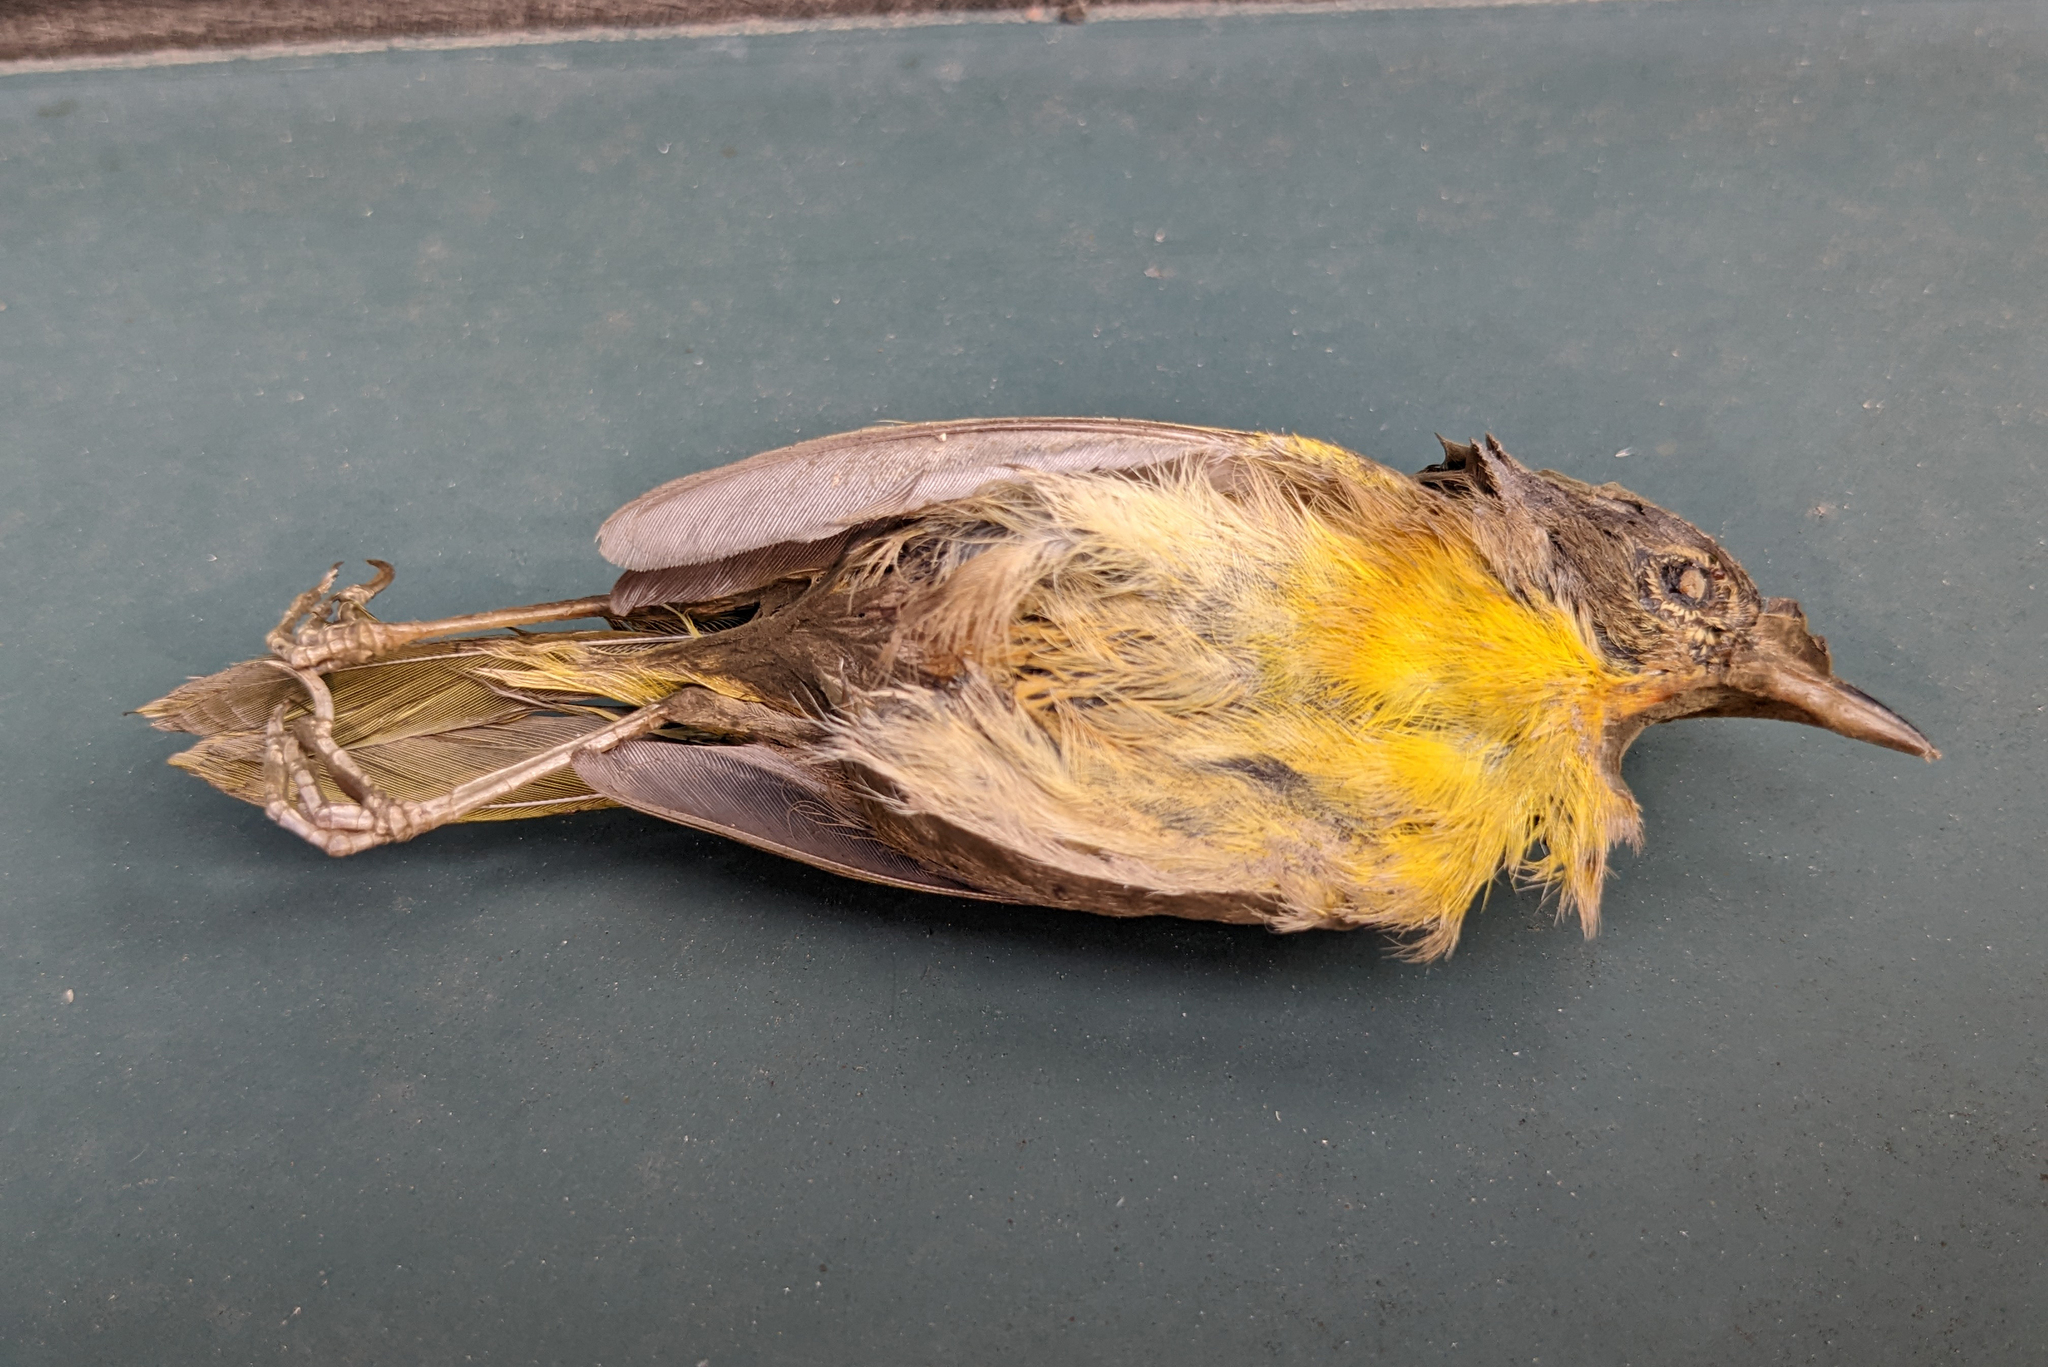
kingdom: Animalia
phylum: Chordata
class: Aves
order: Passeriformes
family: Parulidae
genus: Geothlypis
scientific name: Geothlypis trichas
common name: Common yellowthroat
